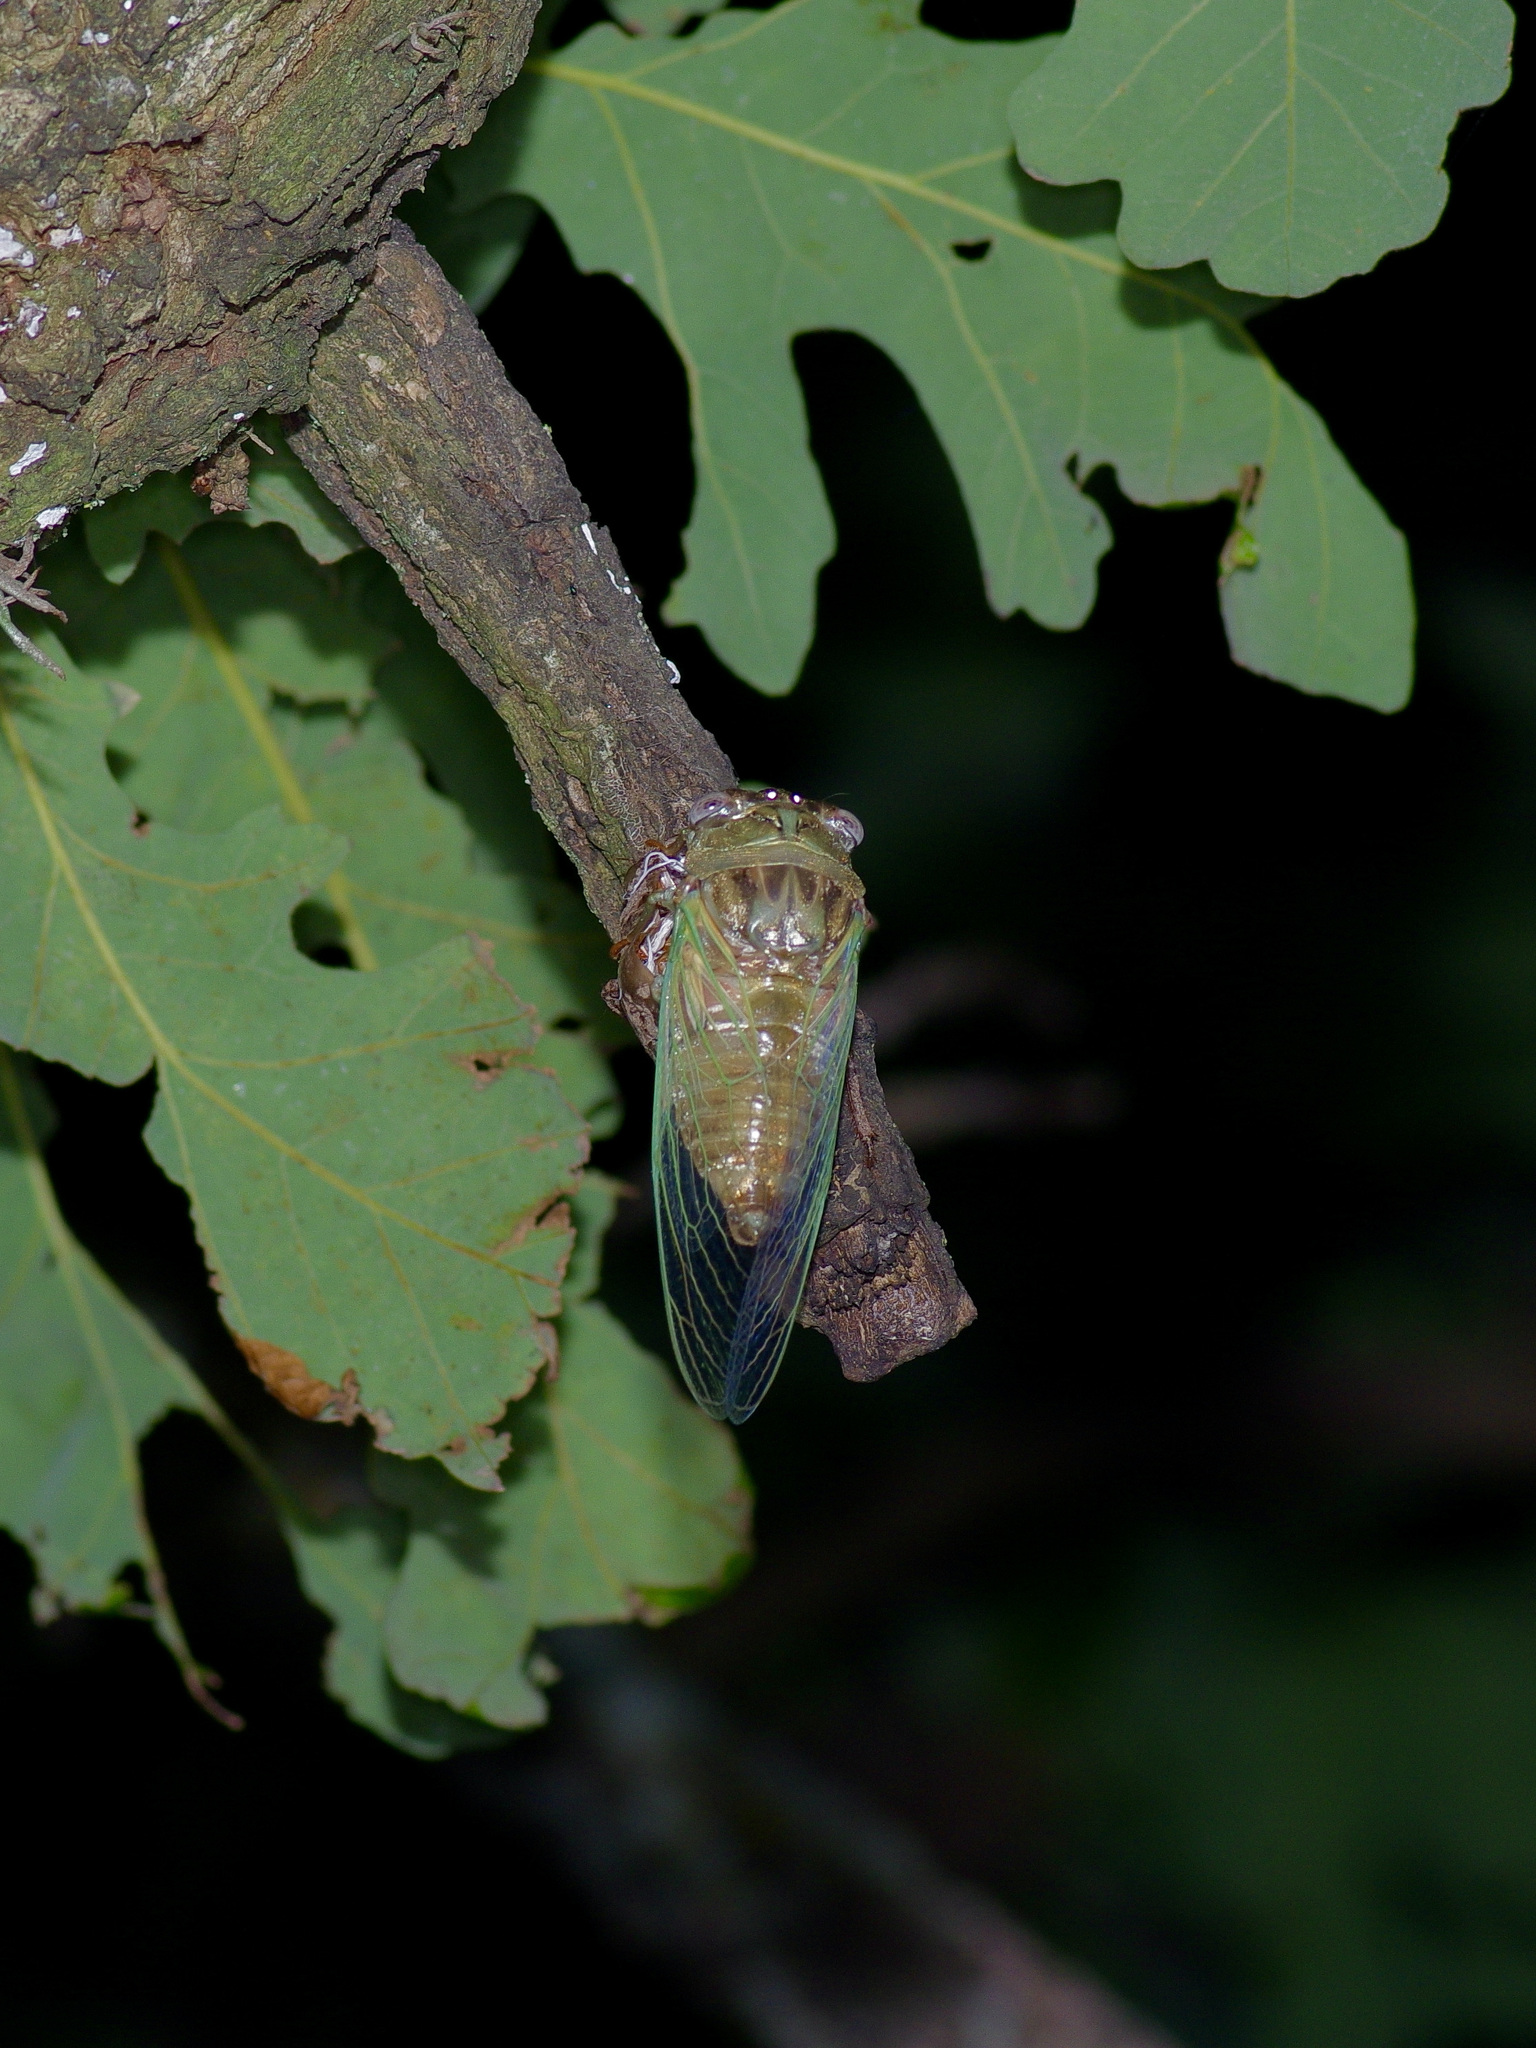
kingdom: Animalia
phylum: Arthropoda
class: Insecta
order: Hemiptera
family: Cicadidae
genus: Megatibicen
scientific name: Megatibicen resh
